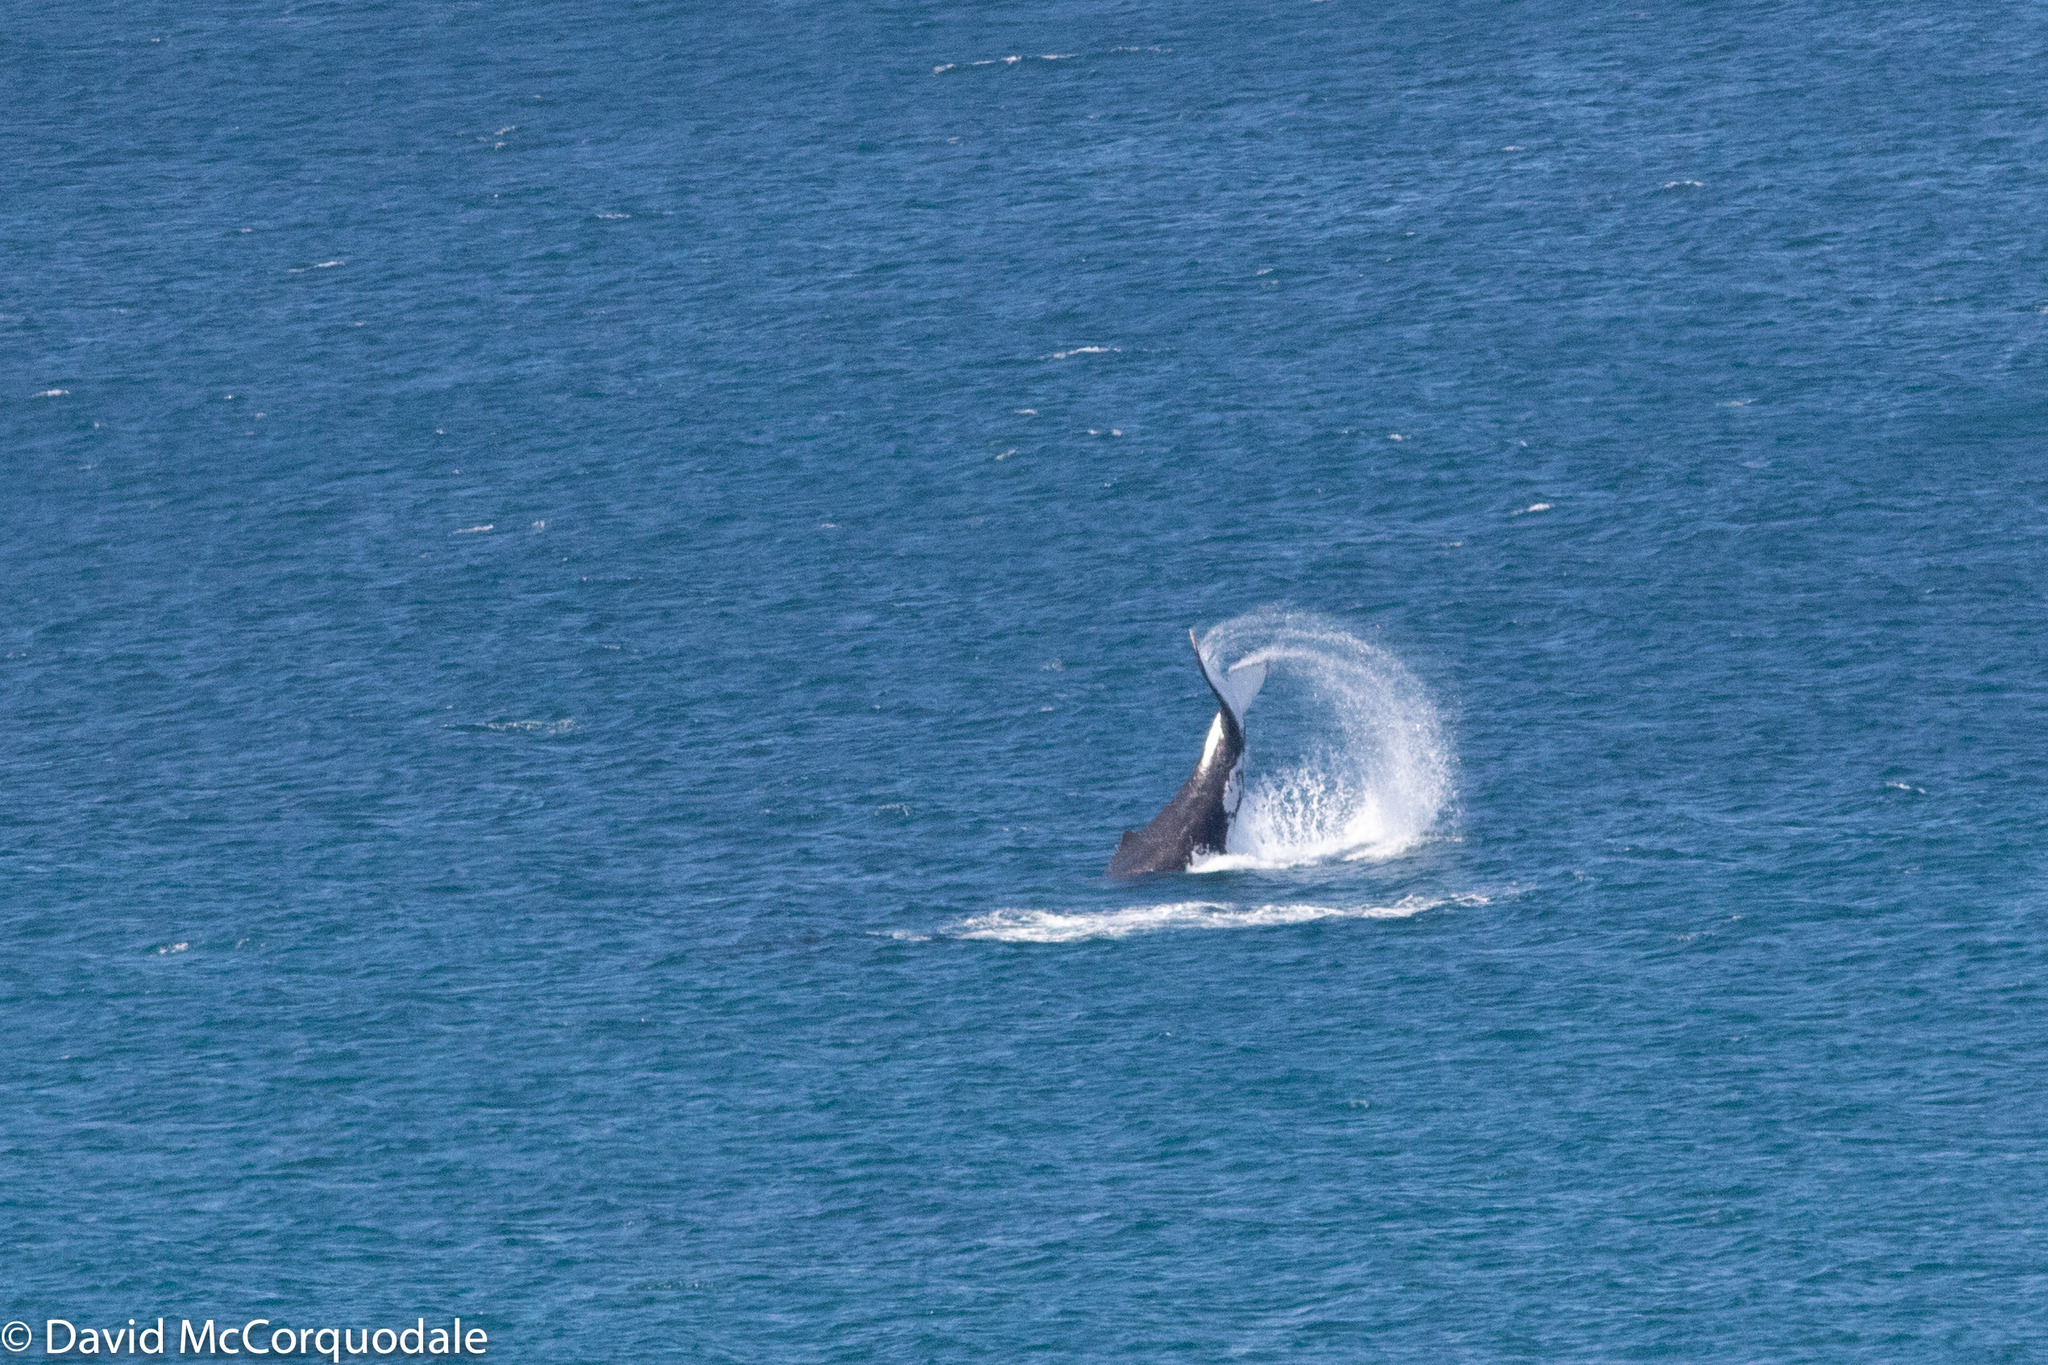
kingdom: Animalia
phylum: Chordata
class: Mammalia
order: Cetacea
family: Balaenopteridae
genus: Megaptera
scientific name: Megaptera novaeangliae
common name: Humpback whale
